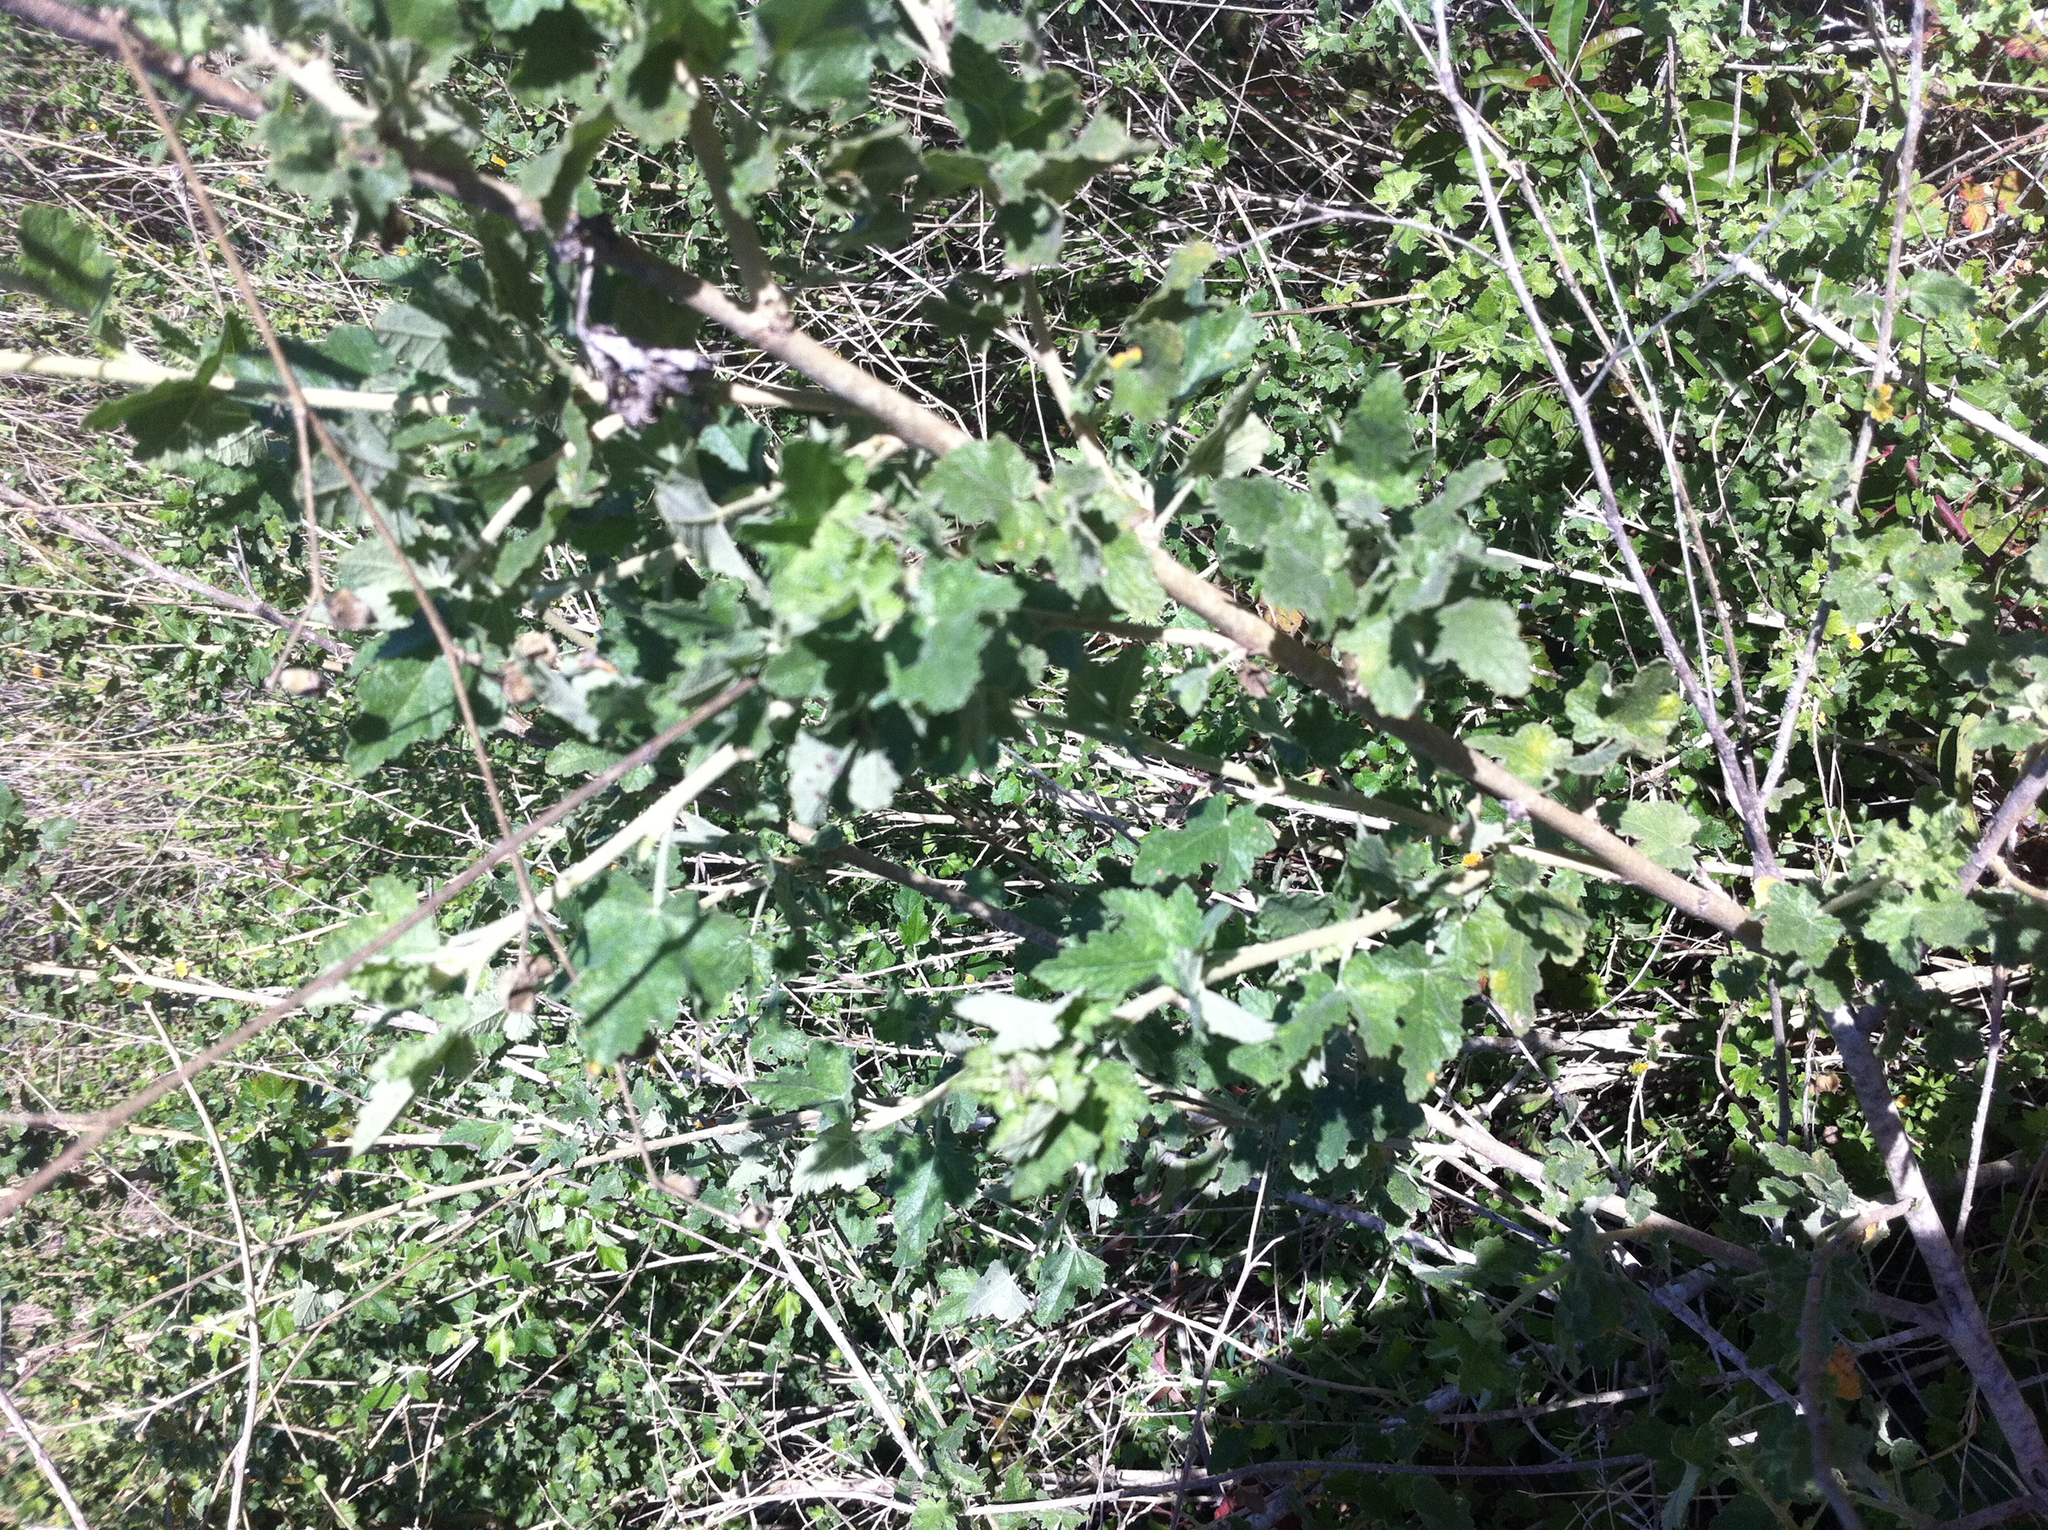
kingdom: Plantae
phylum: Tracheophyta
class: Magnoliopsida
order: Malvales
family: Malvaceae
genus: Malacothamnus
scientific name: Malacothamnus fasciculatus
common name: Sant cruz island bush-mallow
